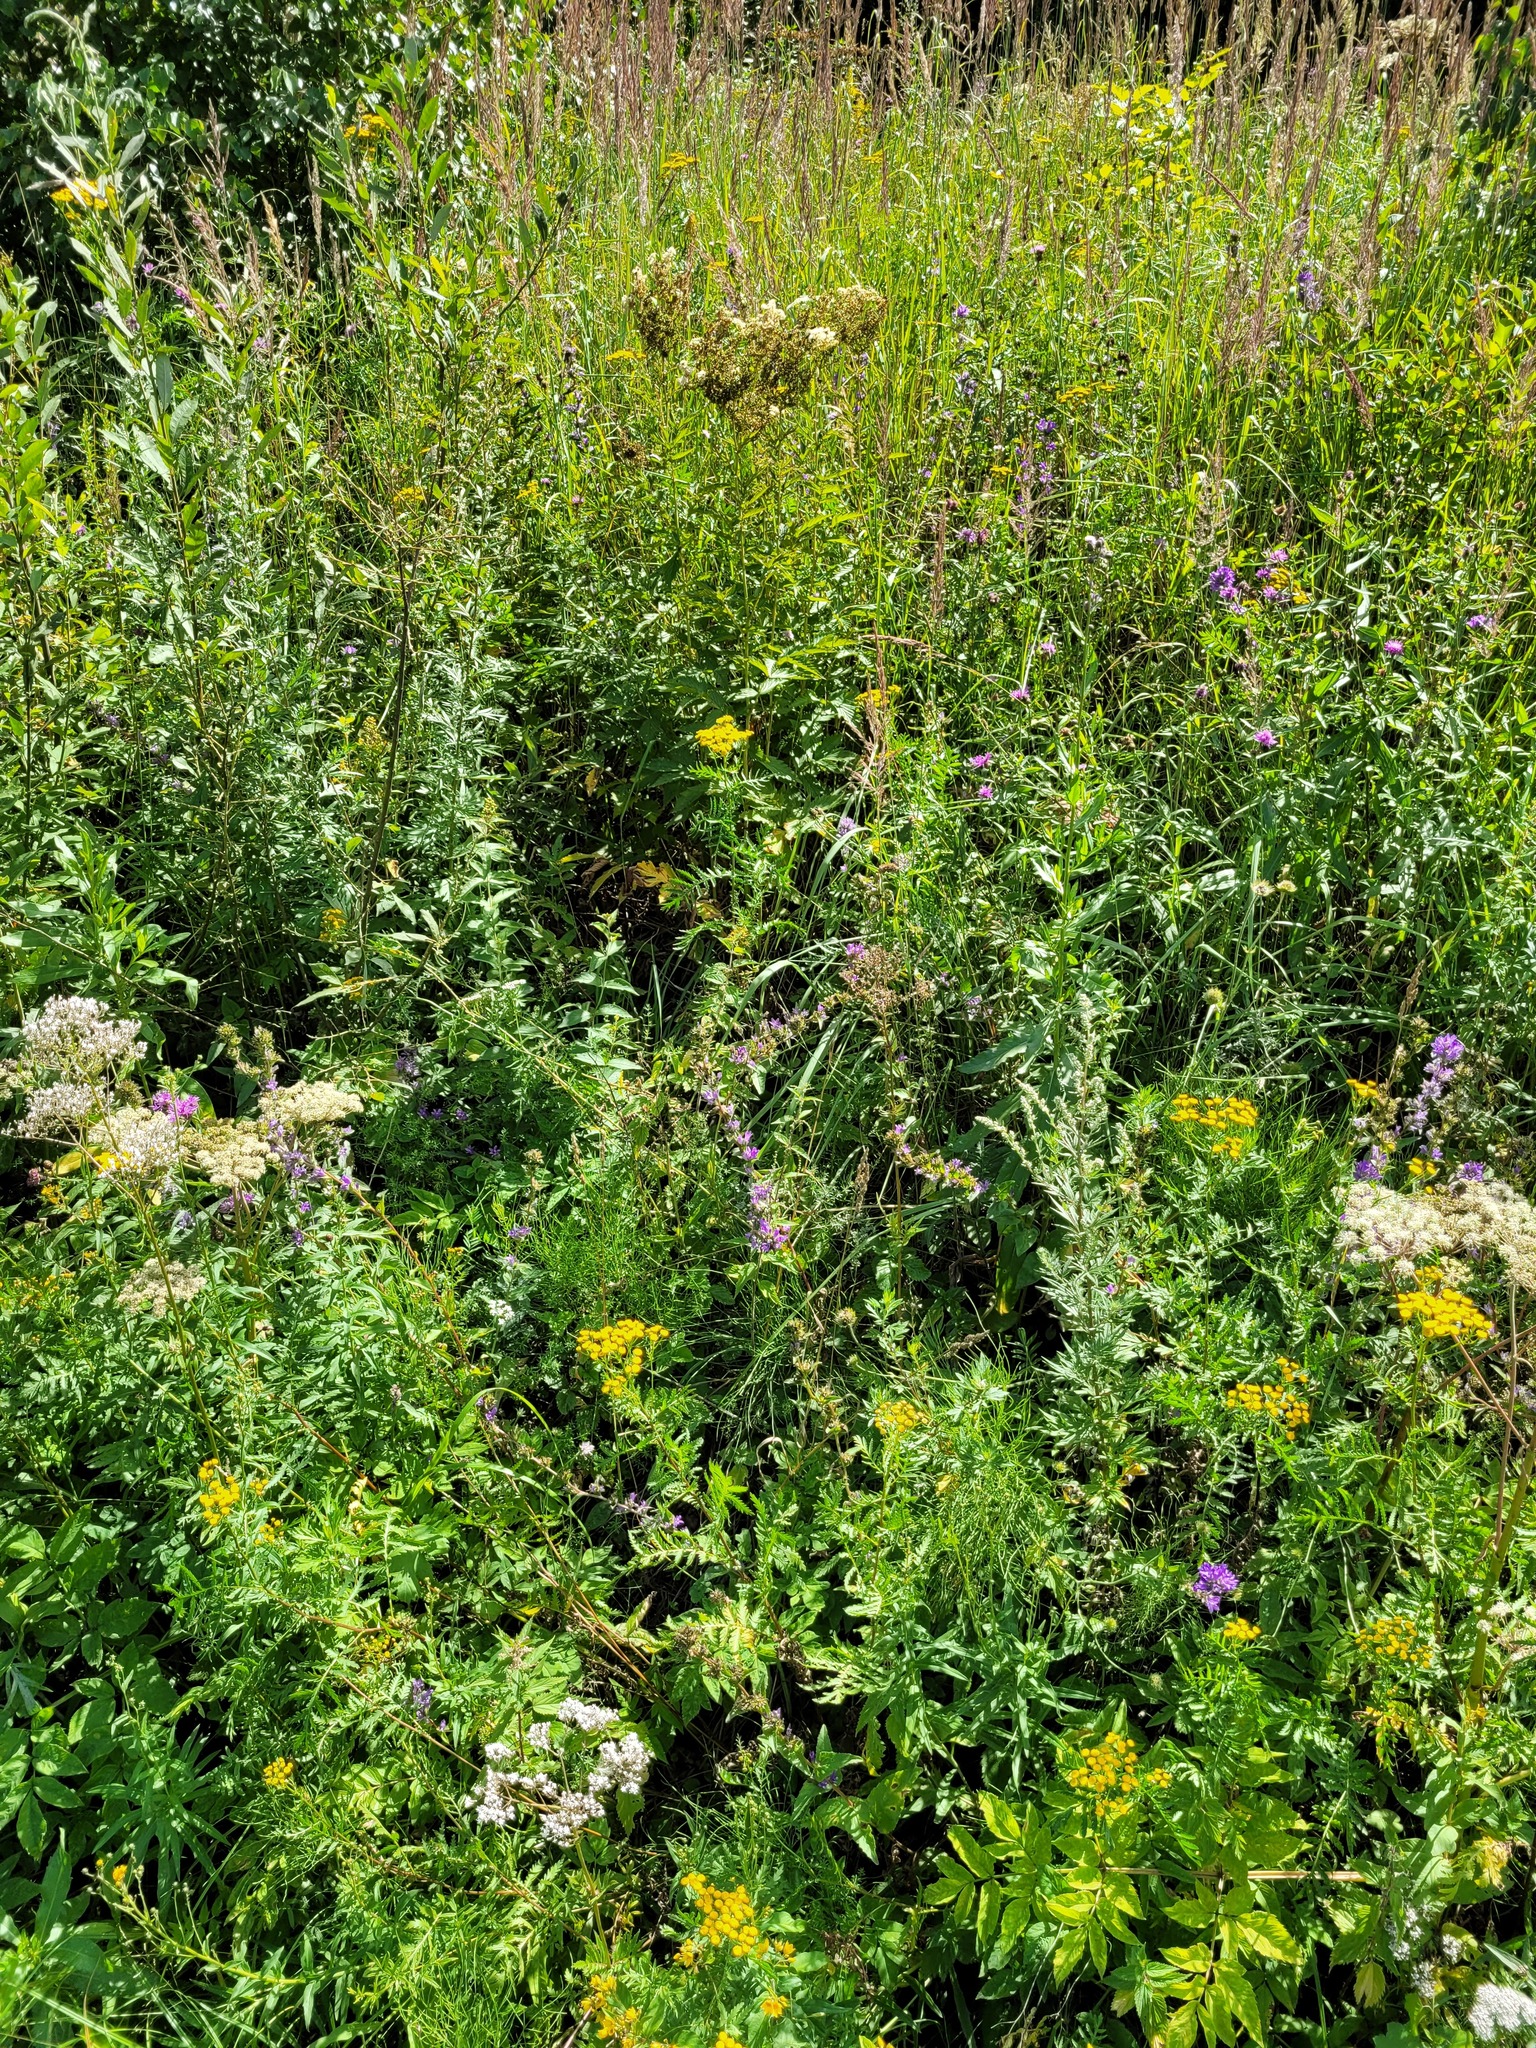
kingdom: Plantae
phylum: Tracheophyta
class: Magnoliopsida
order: Asterales
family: Campanulaceae
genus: Campanula
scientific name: Campanula glomerata
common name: Clustered bellflower
